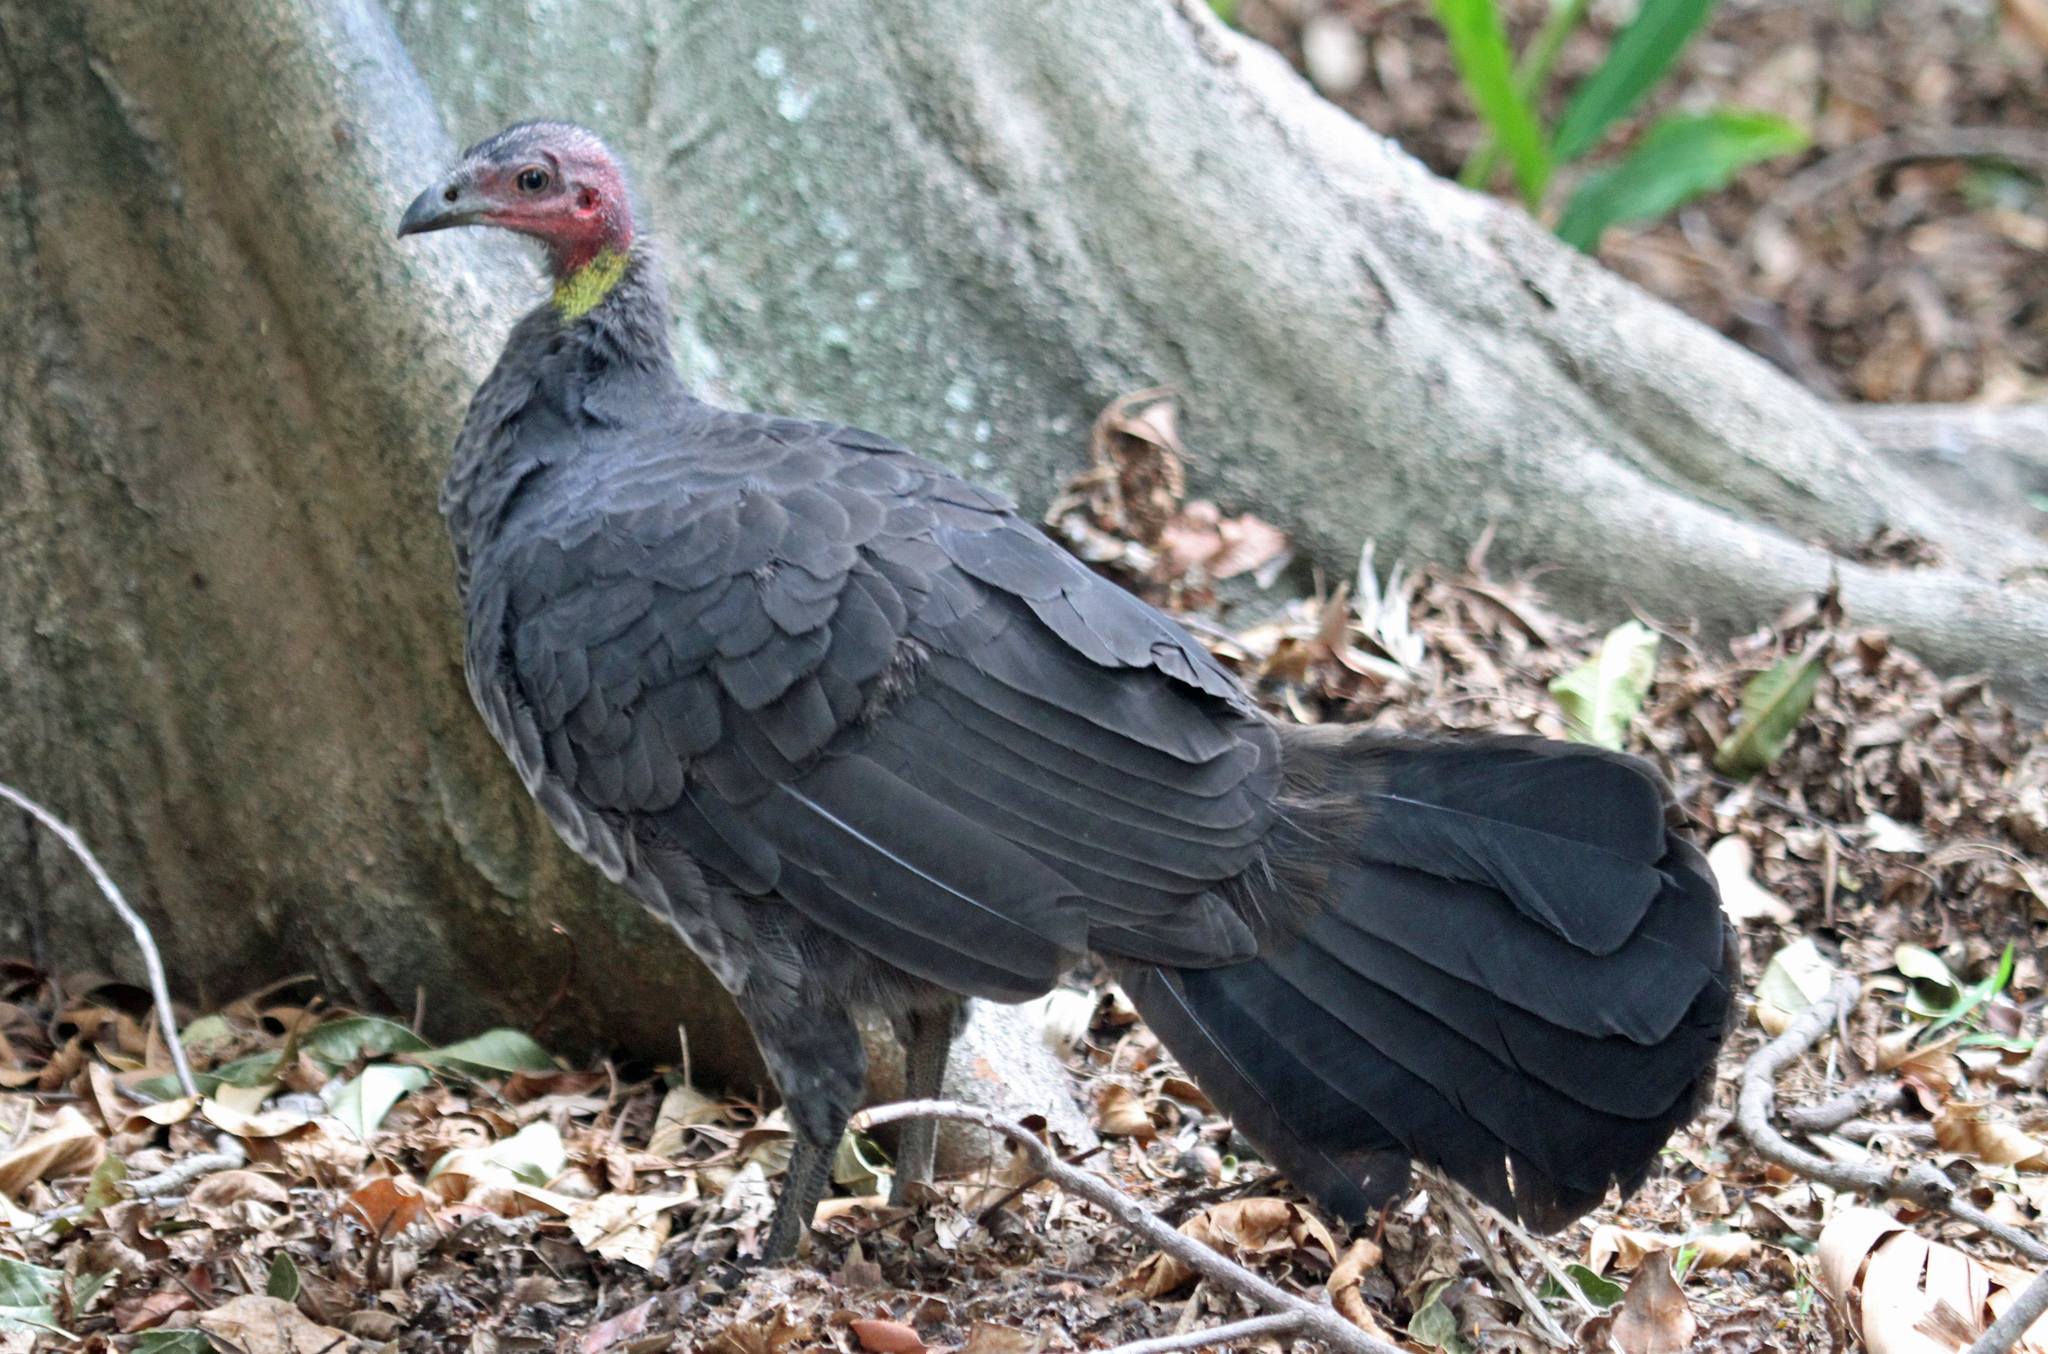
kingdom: Animalia
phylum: Chordata
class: Aves
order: Galliformes
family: Megapodiidae
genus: Alectura
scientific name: Alectura lathami
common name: Australian brushturkey
